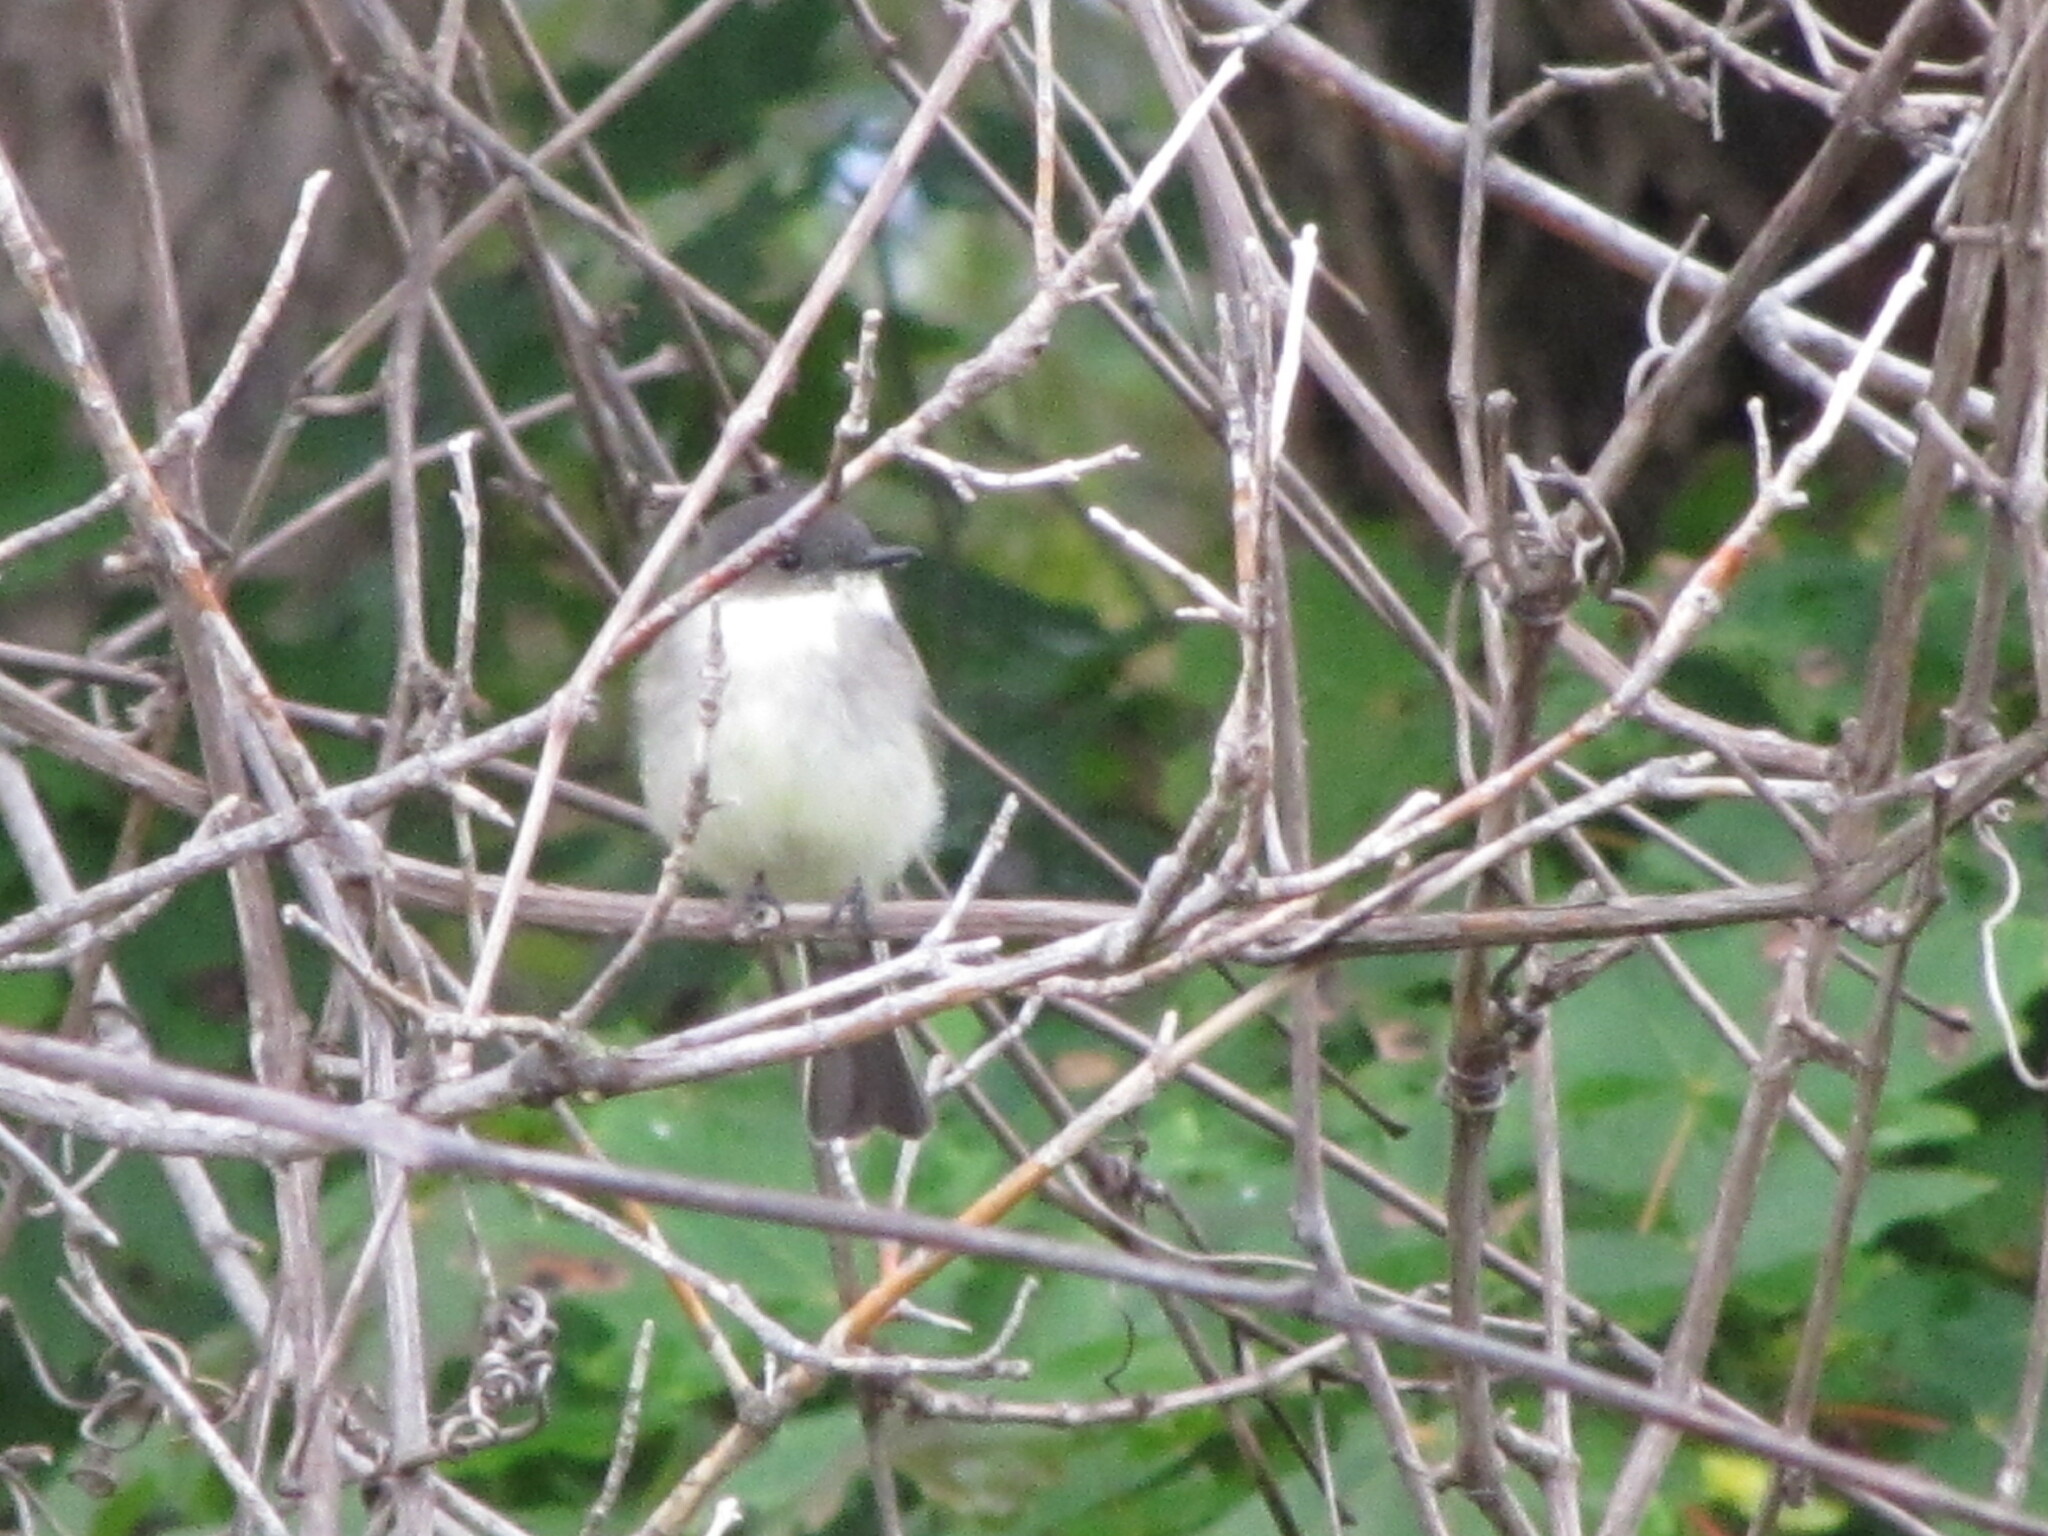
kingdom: Animalia
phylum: Chordata
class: Aves
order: Passeriformes
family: Tyrannidae
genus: Sayornis
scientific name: Sayornis phoebe
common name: Eastern phoebe
